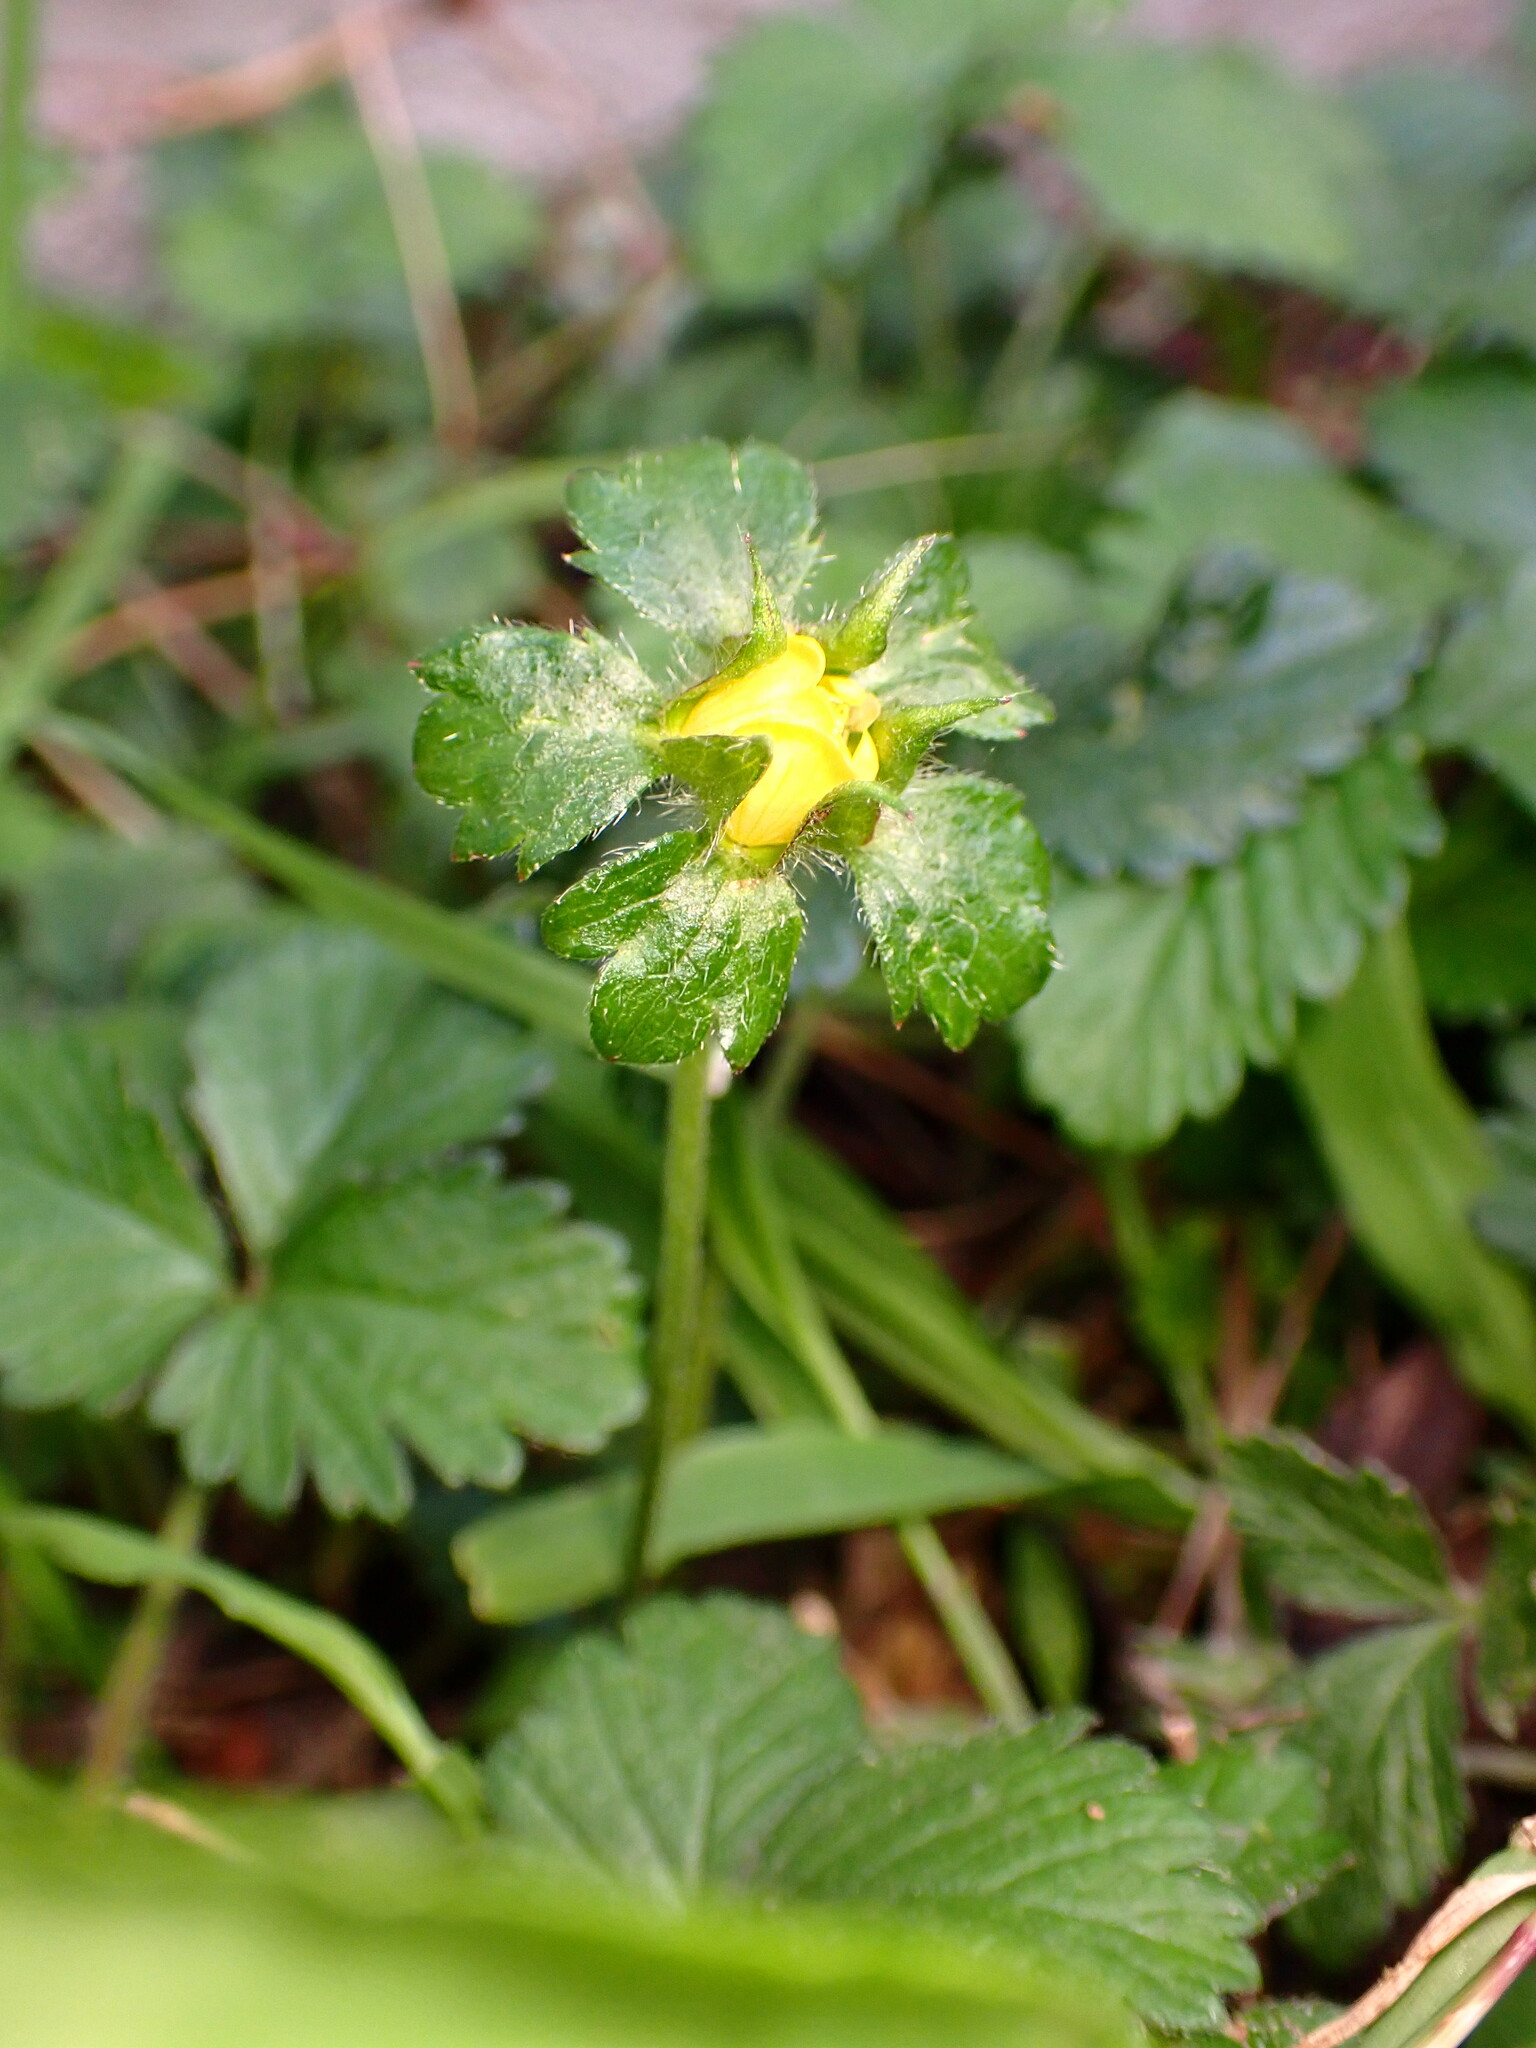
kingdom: Plantae
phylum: Tracheophyta
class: Magnoliopsida
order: Rosales
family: Rosaceae
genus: Potentilla
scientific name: Potentilla indica
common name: Yellow-flowered strawberry
